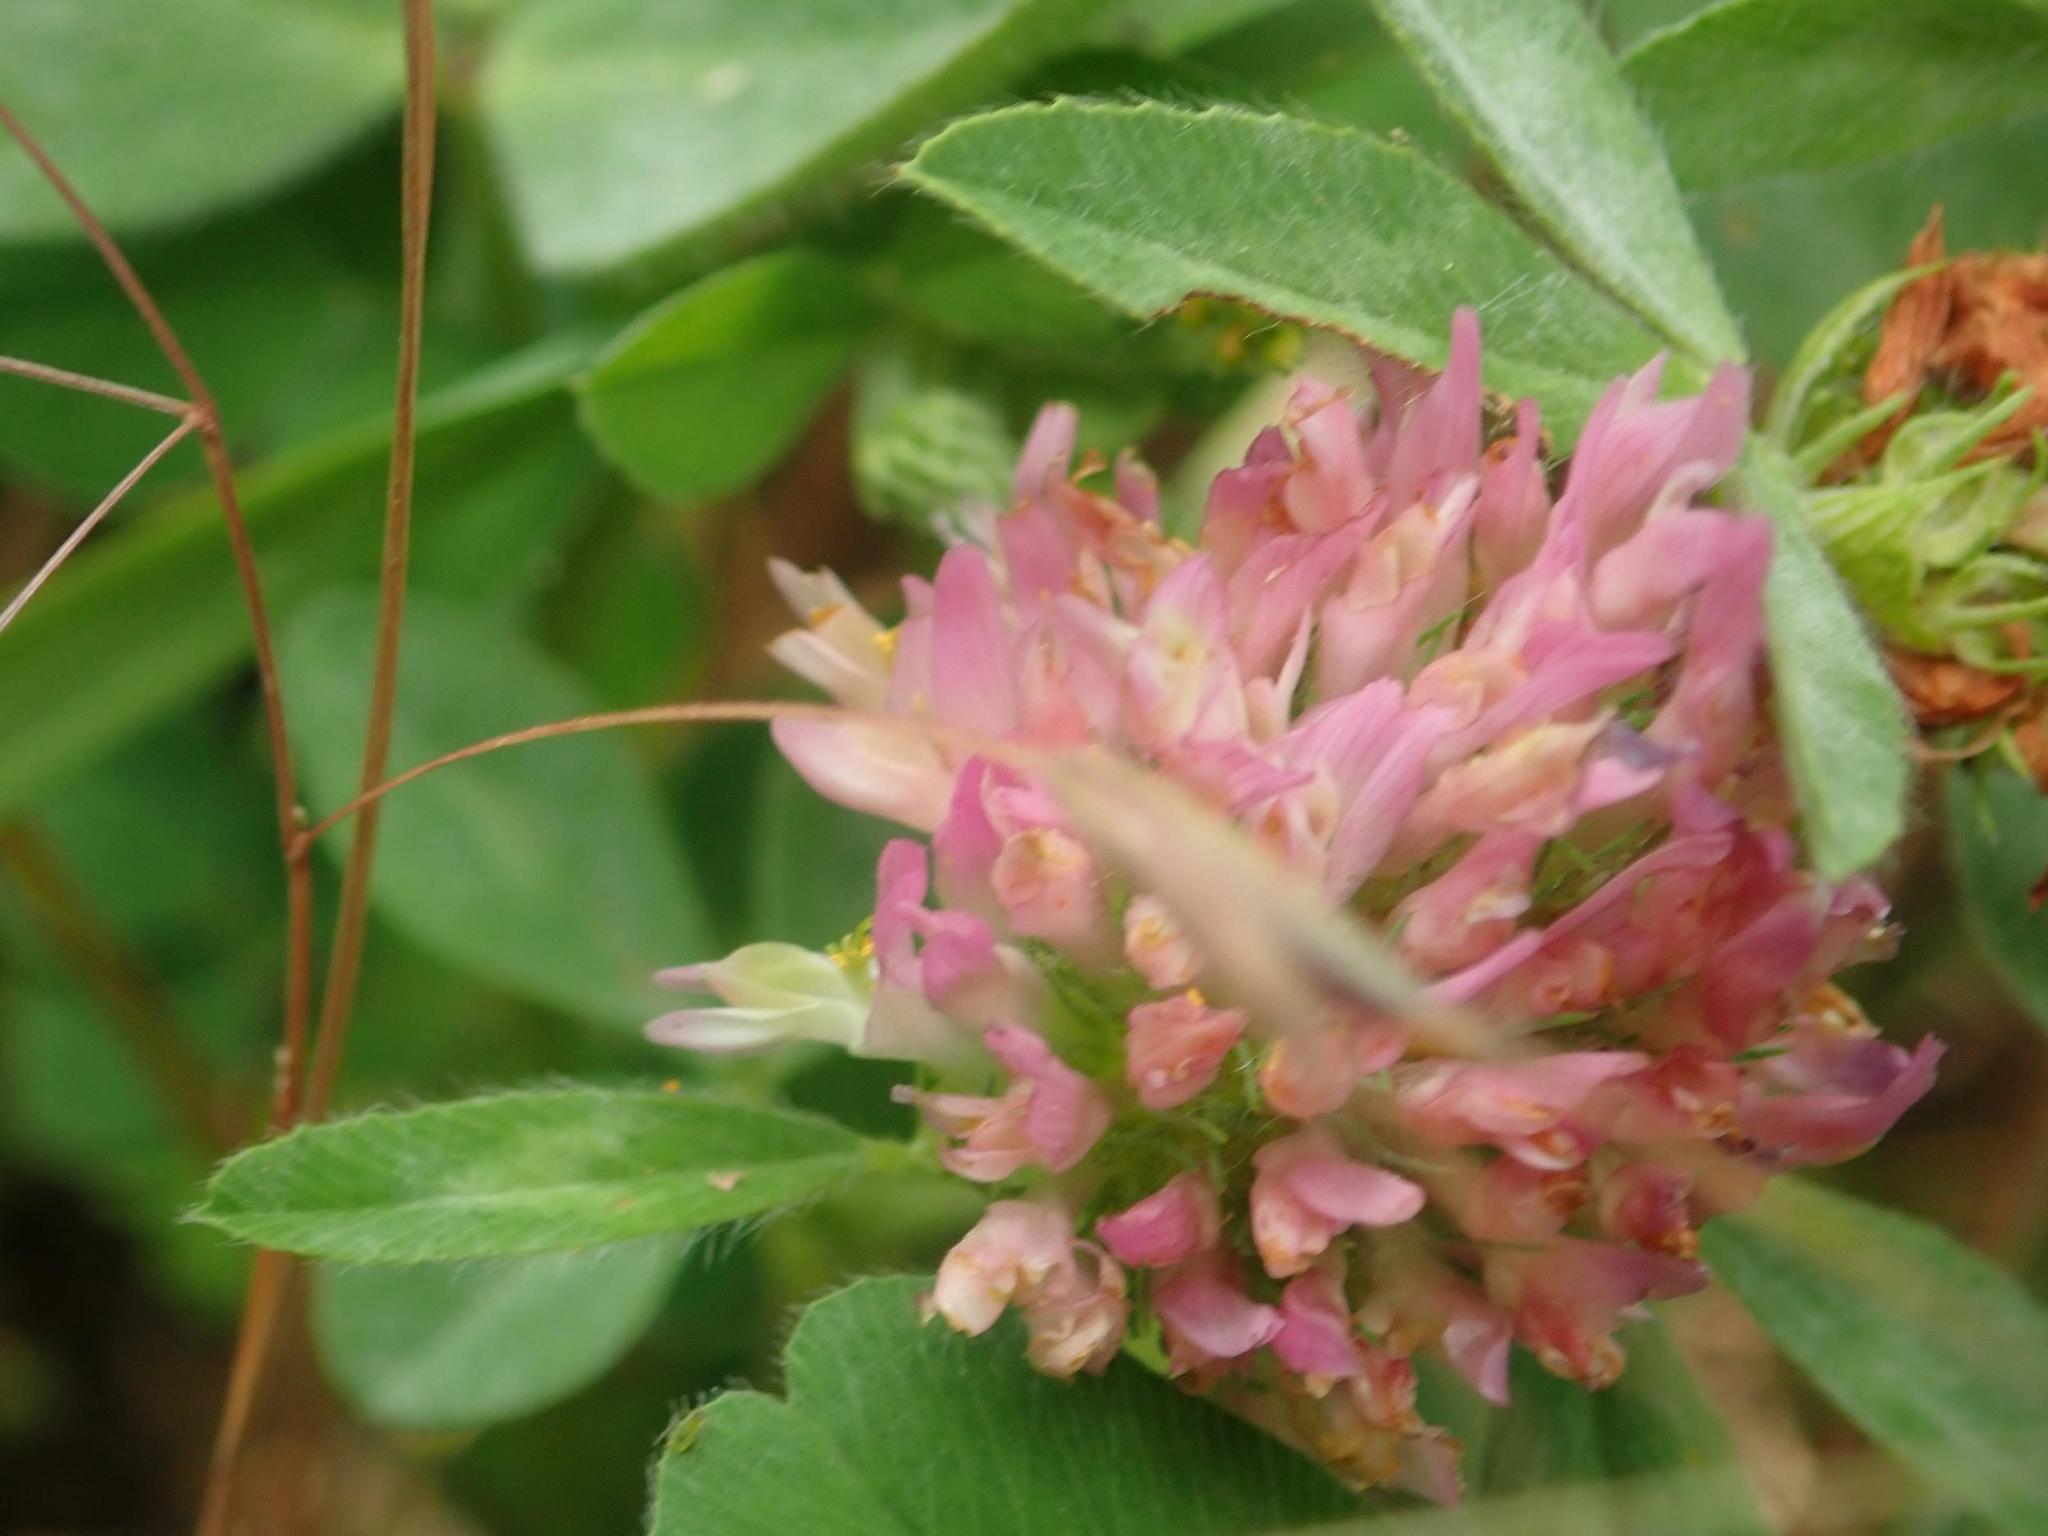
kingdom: Plantae
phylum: Tracheophyta
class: Magnoliopsida
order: Fabales
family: Fabaceae
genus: Trifolium
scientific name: Trifolium pratense
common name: Red clover
